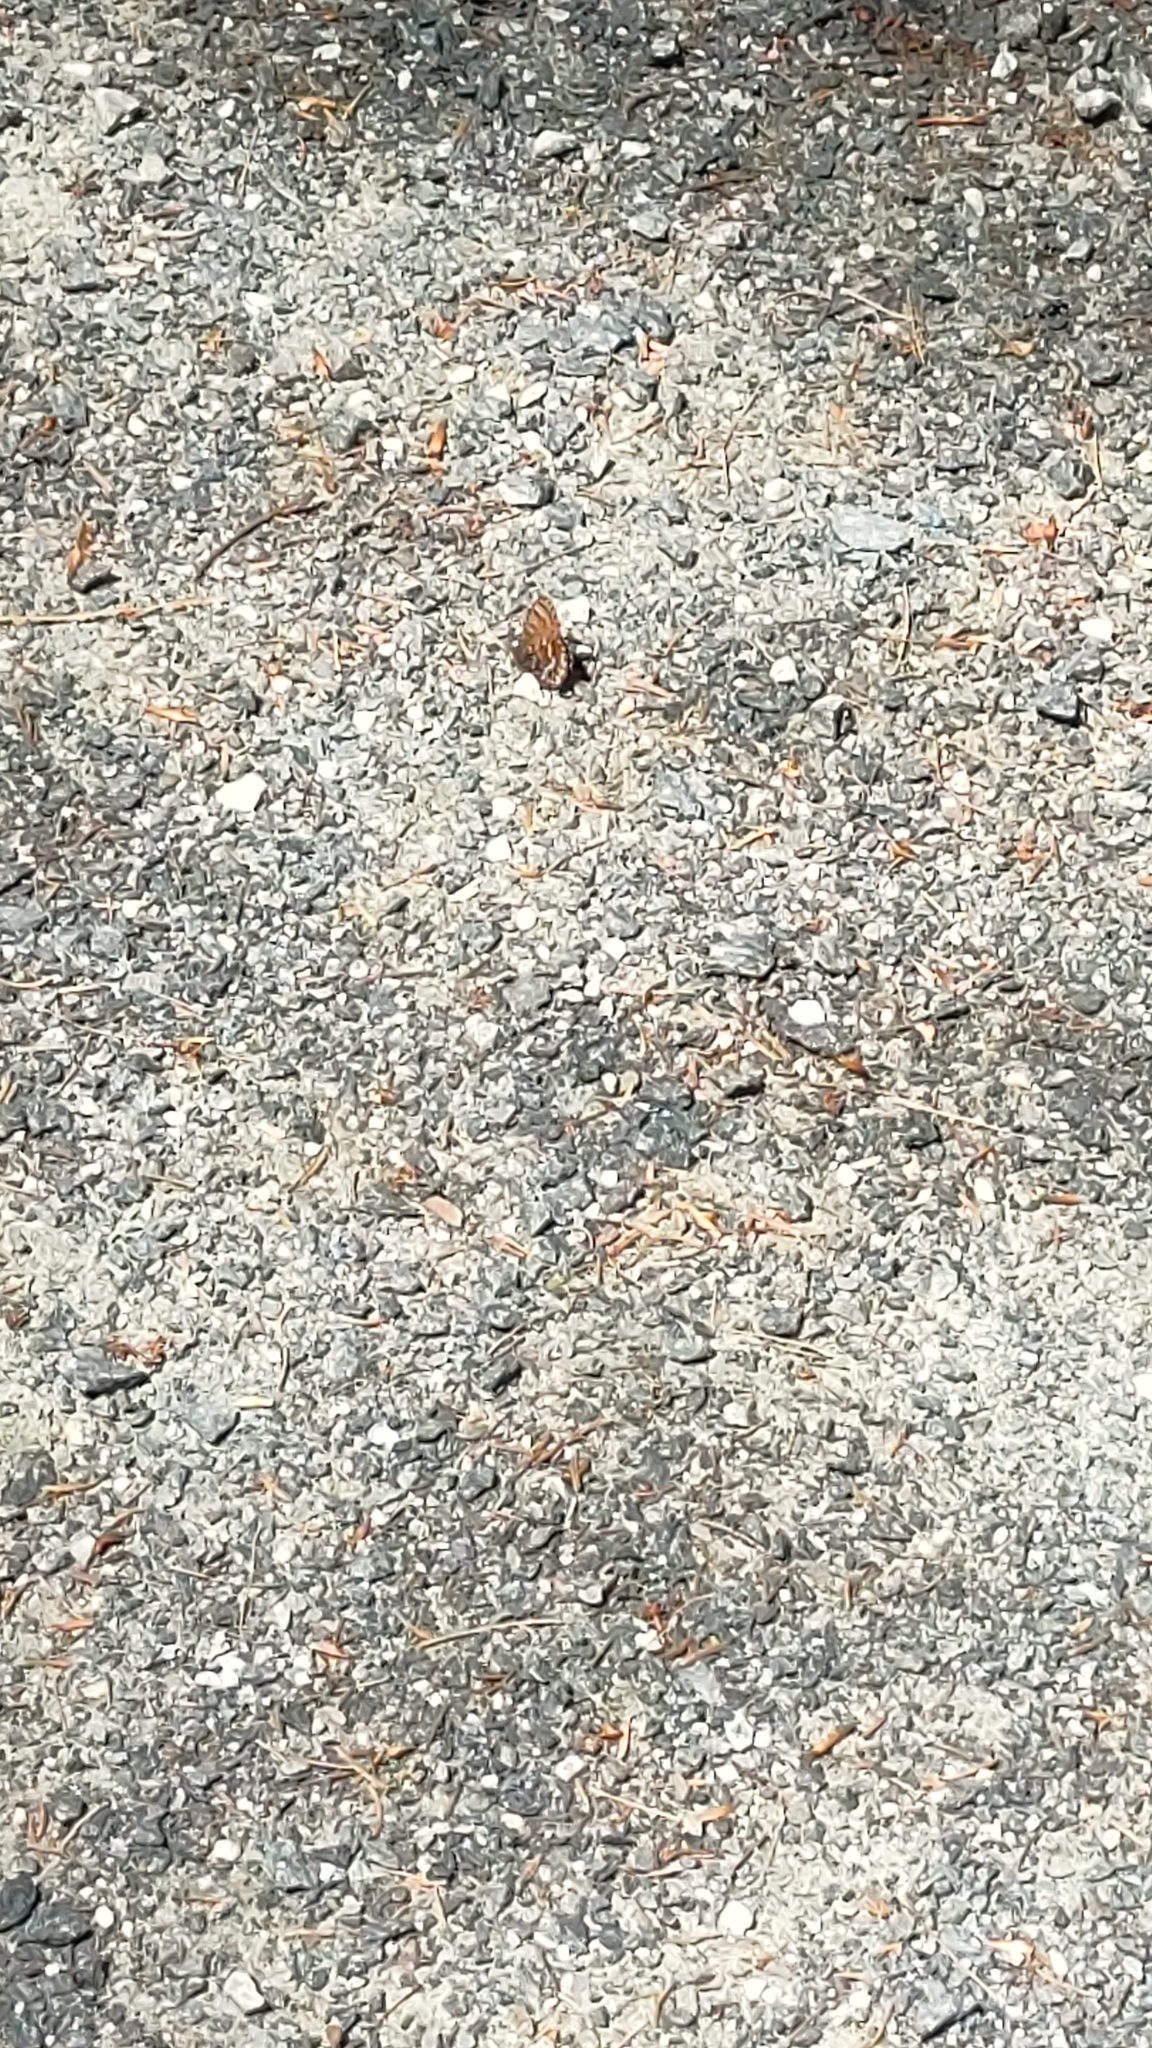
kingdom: Animalia
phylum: Arthropoda
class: Insecta
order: Lepidoptera
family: Lycaenidae
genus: Incisalia
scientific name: Incisalia niphon
